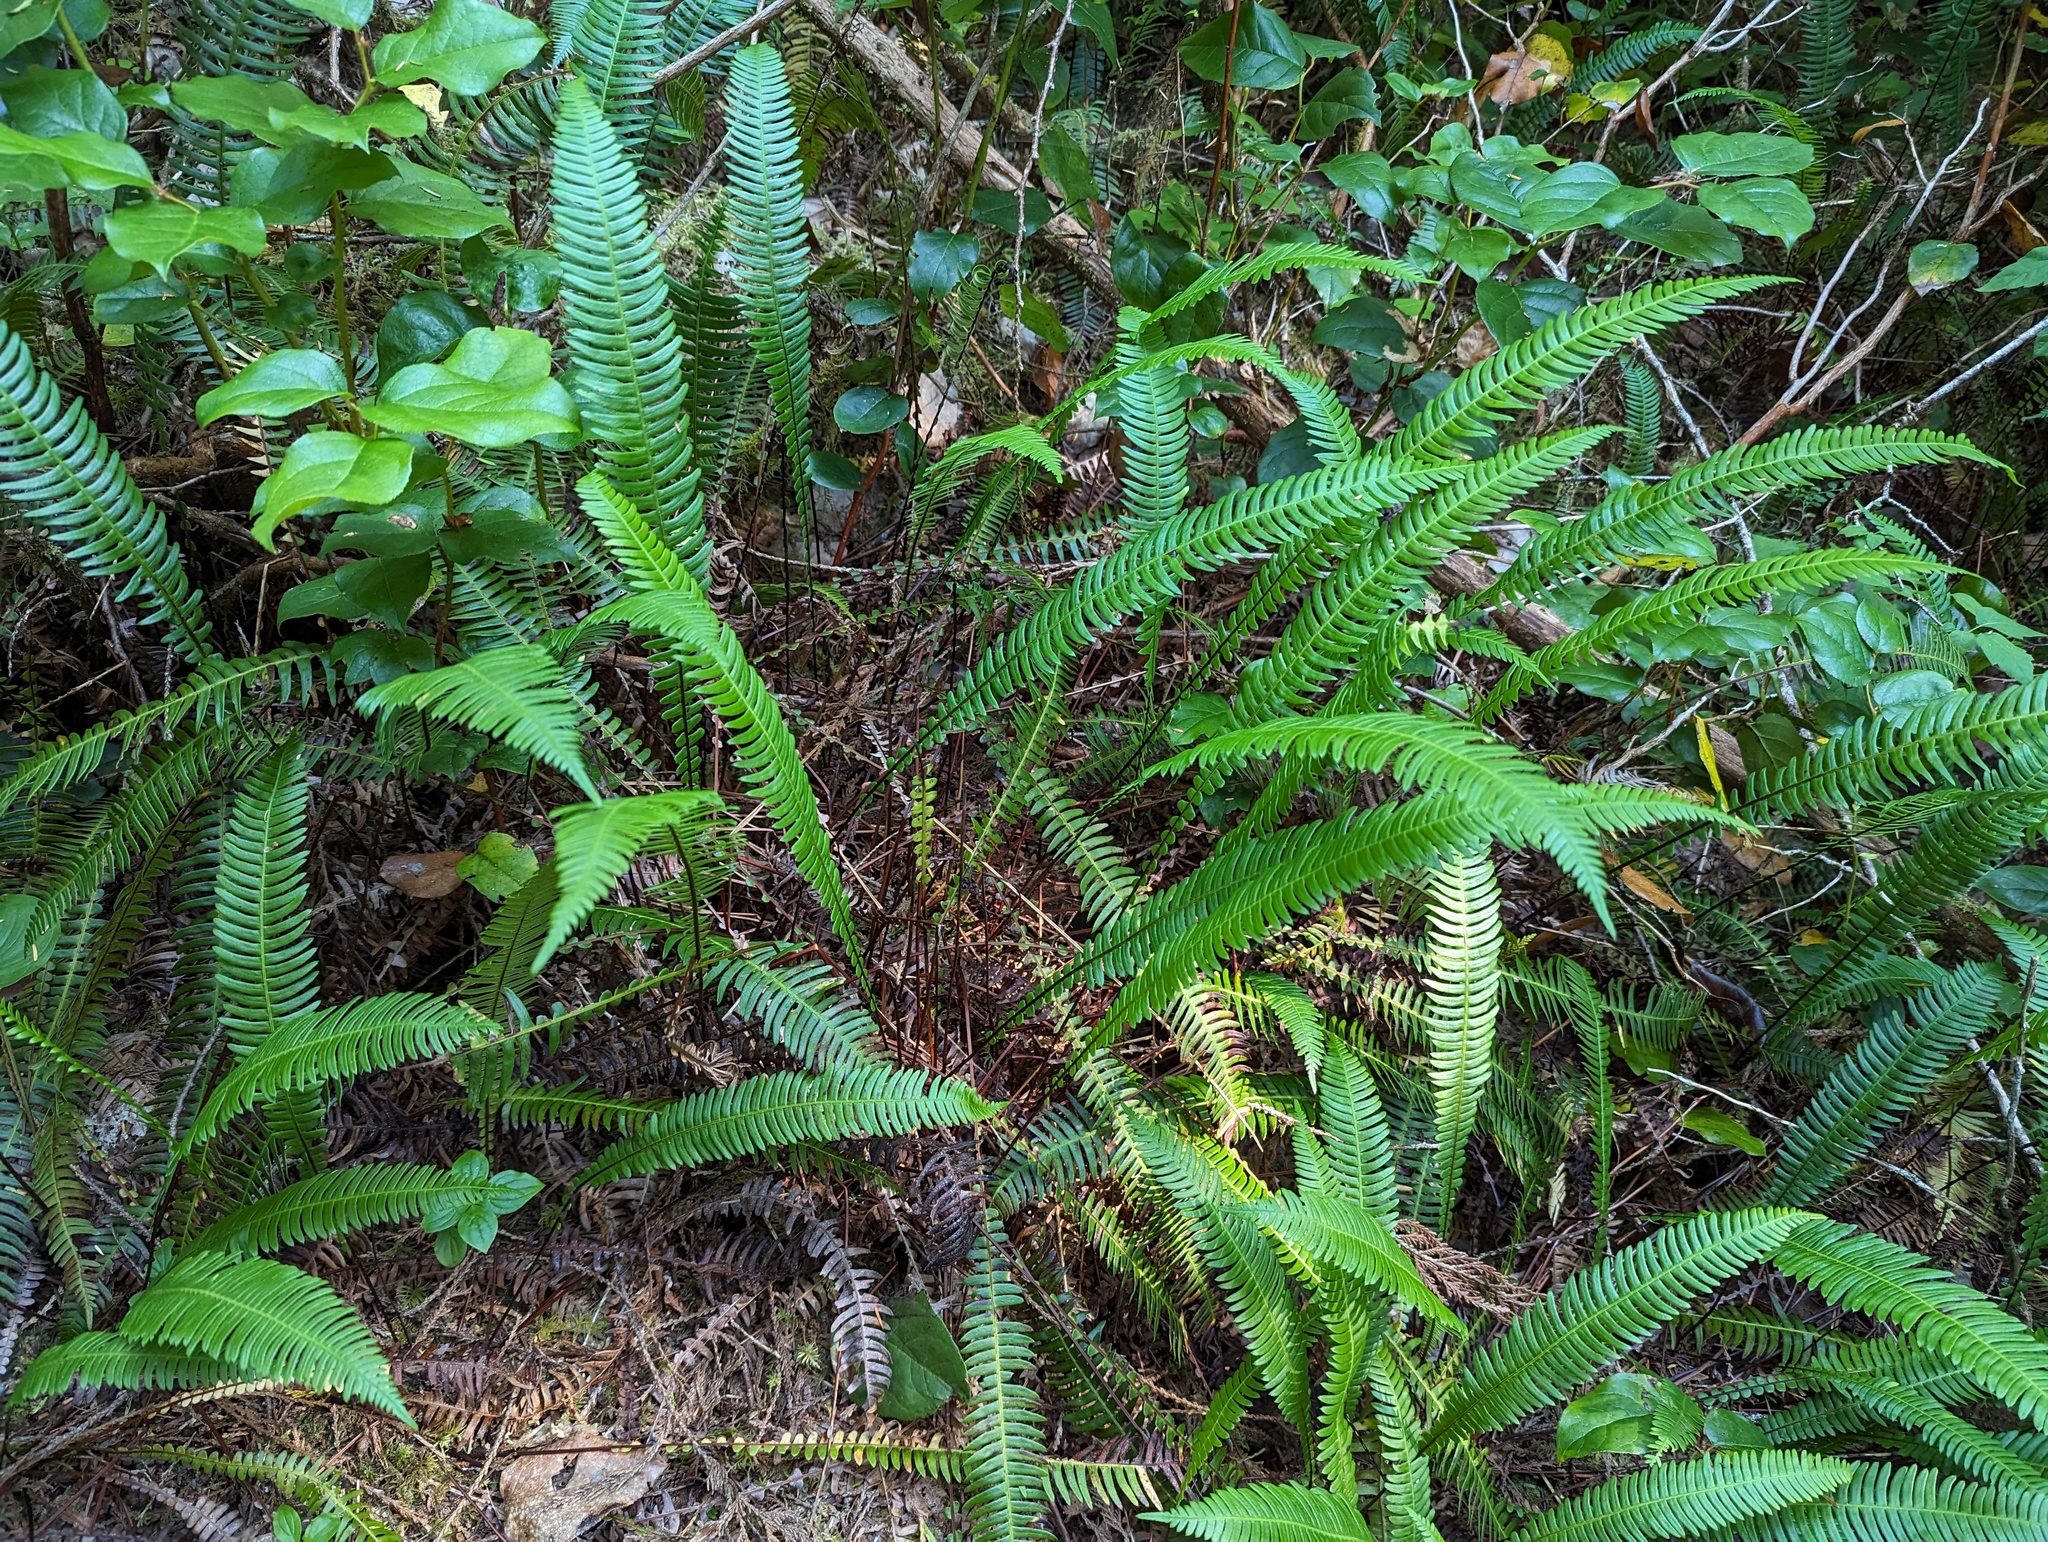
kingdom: Plantae
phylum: Tracheophyta
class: Polypodiopsida
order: Polypodiales
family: Blechnaceae
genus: Struthiopteris
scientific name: Struthiopteris spicant
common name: Deer fern
